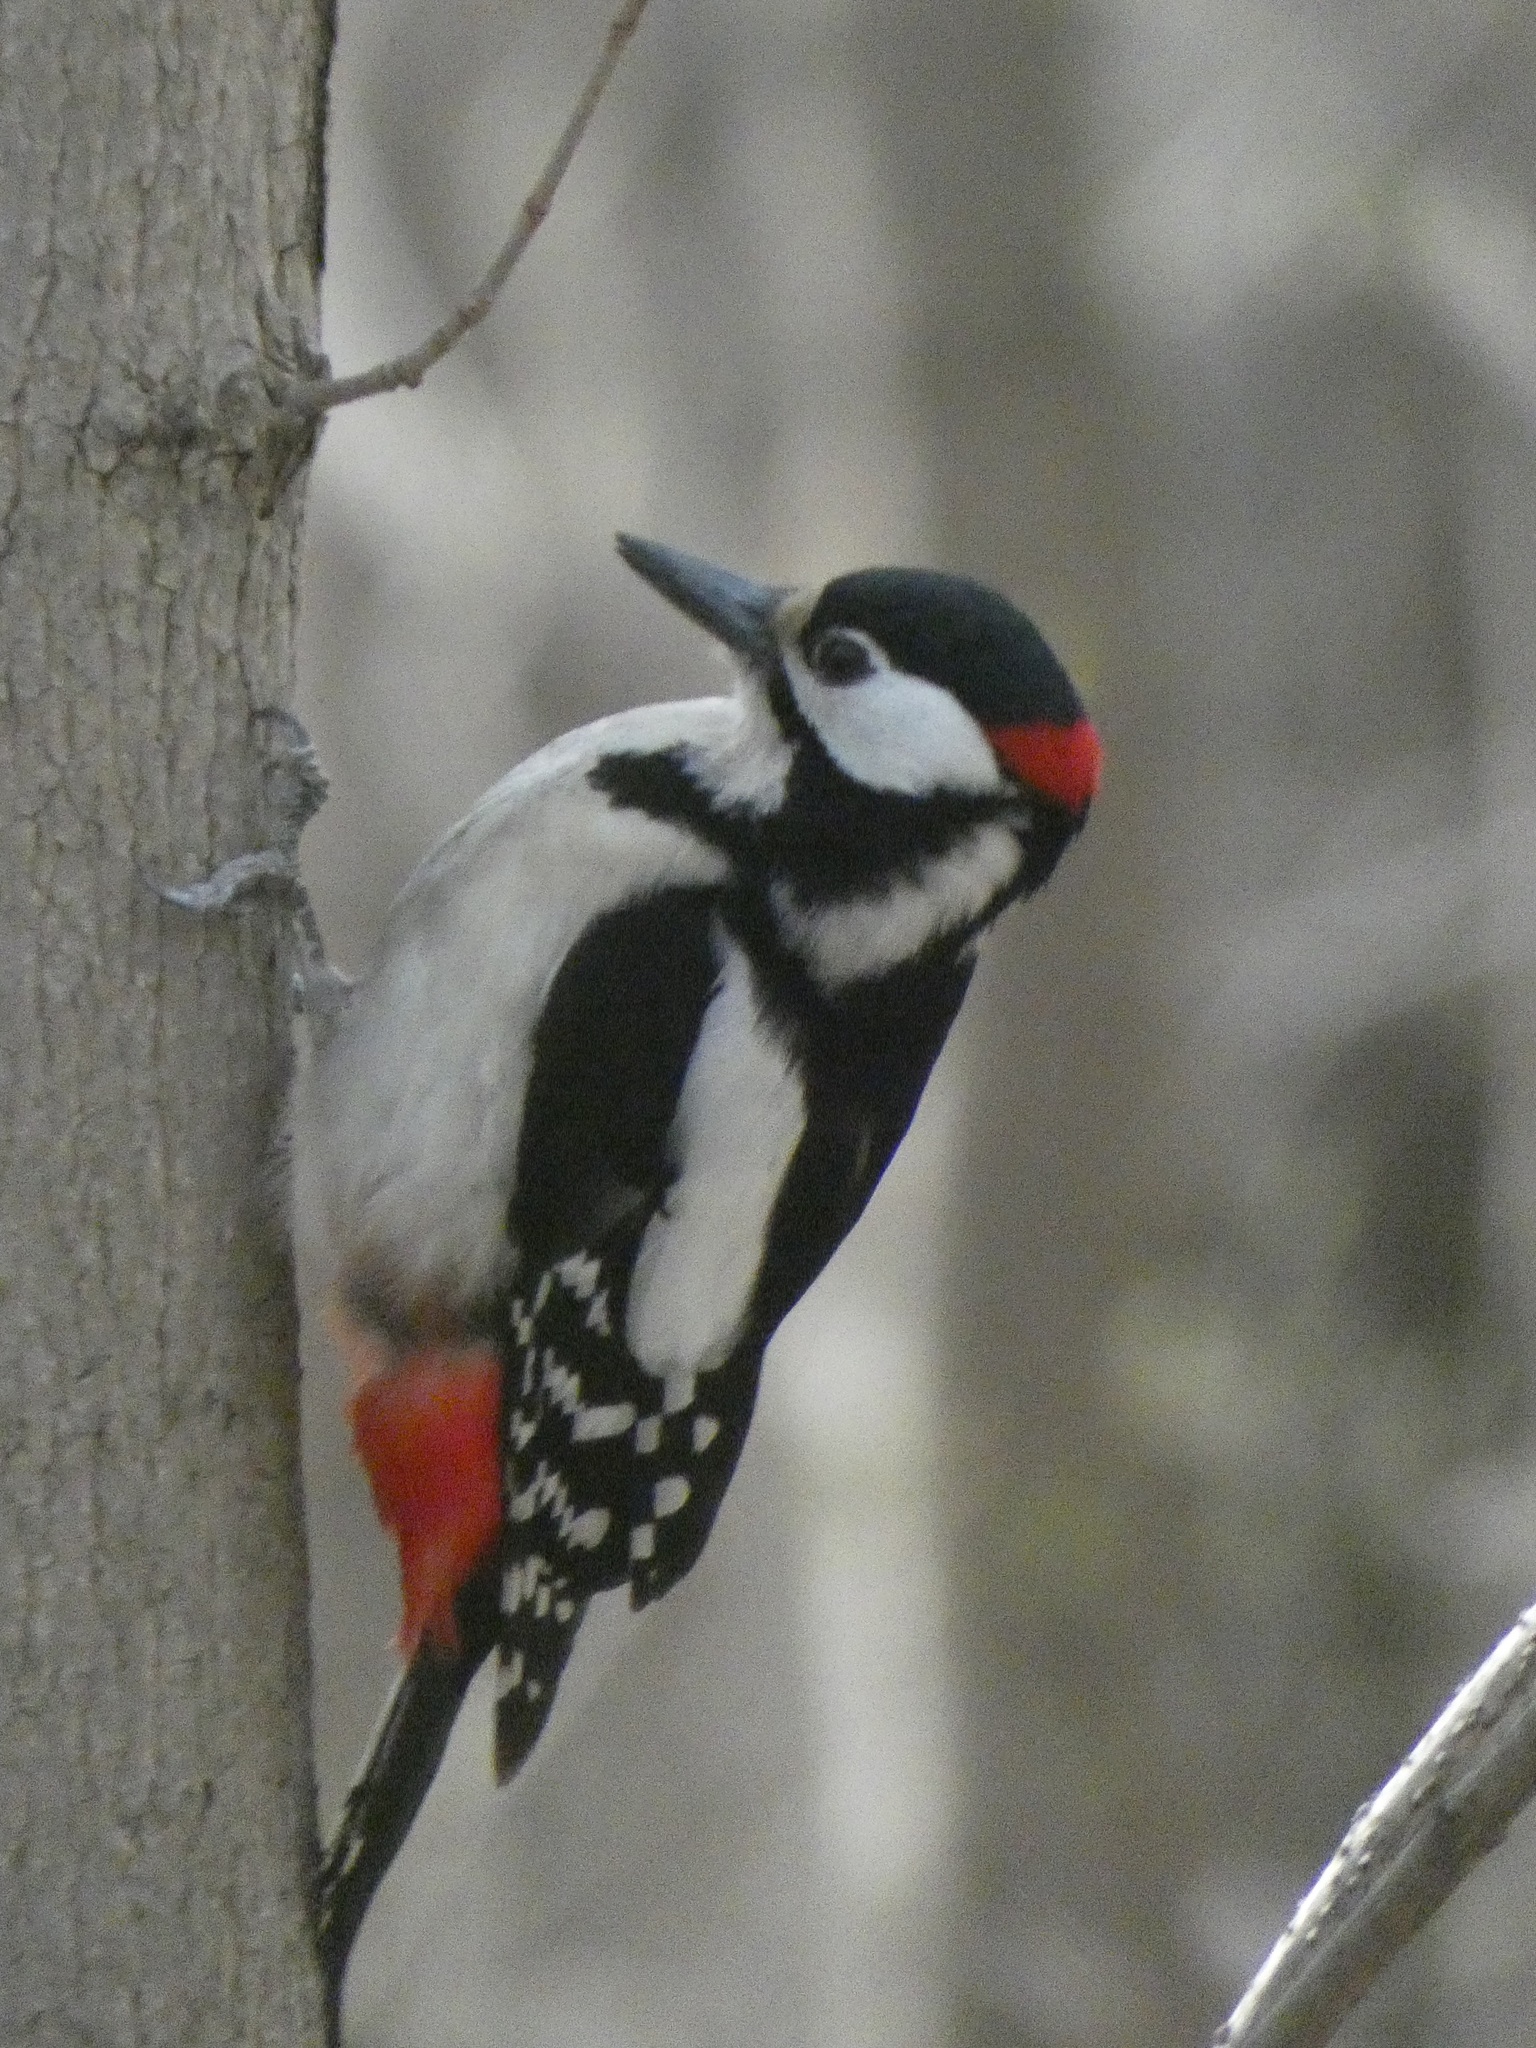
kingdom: Animalia
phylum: Chordata
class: Aves
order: Piciformes
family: Picidae
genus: Dendrocopos
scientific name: Dendrocopos major
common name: Great spotted woodpecker
